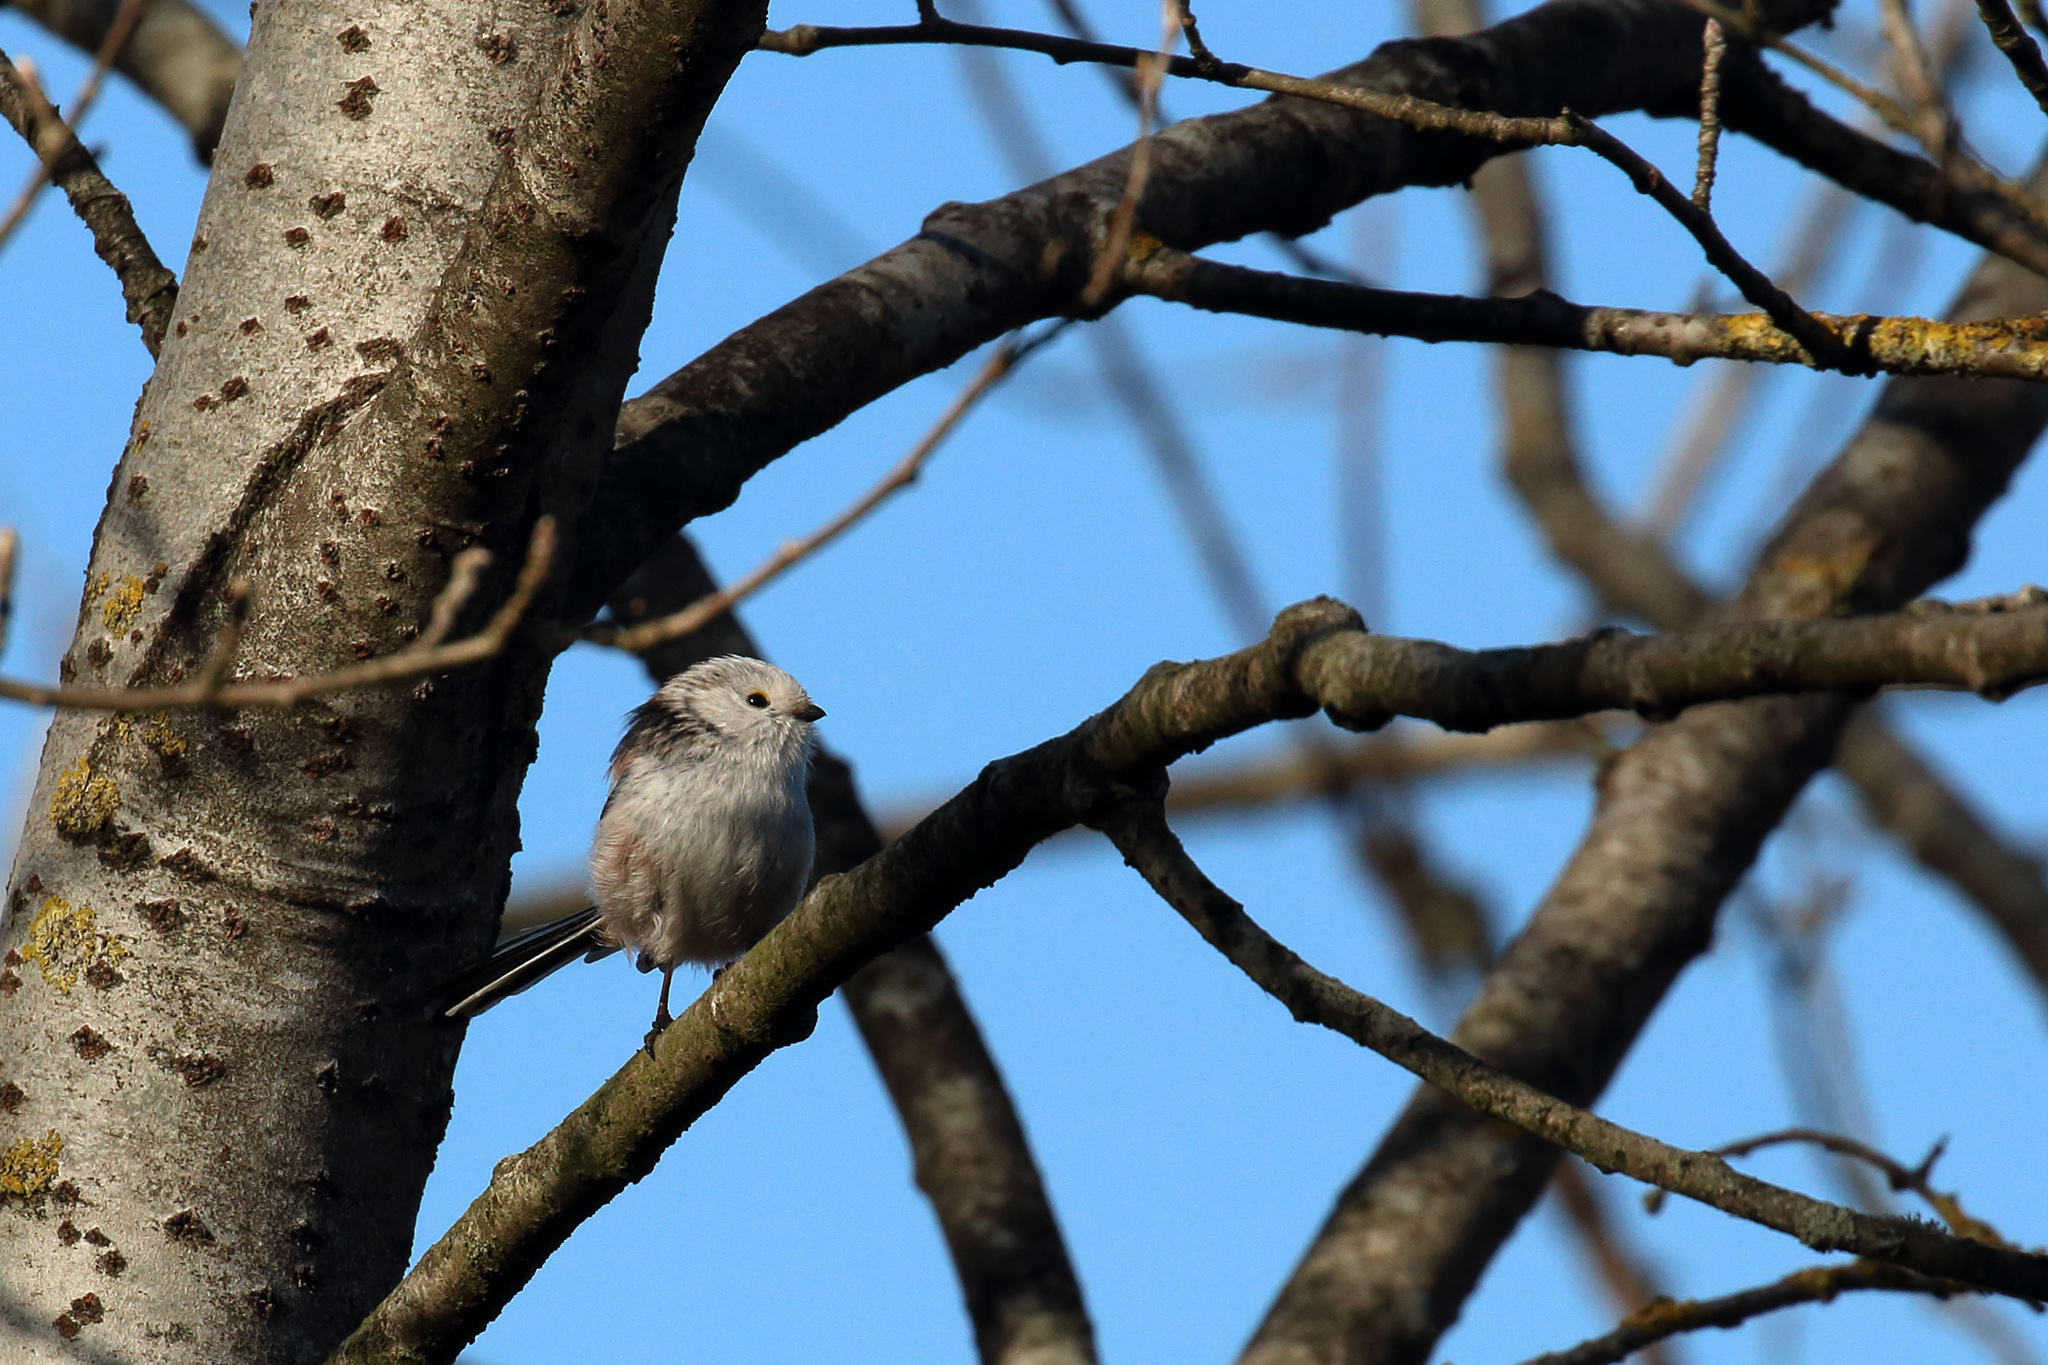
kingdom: Animalia
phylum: Chordata
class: Aves
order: Passeriformes
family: Aegithalidae
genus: Aegithalos
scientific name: Aegithalos caudatus
